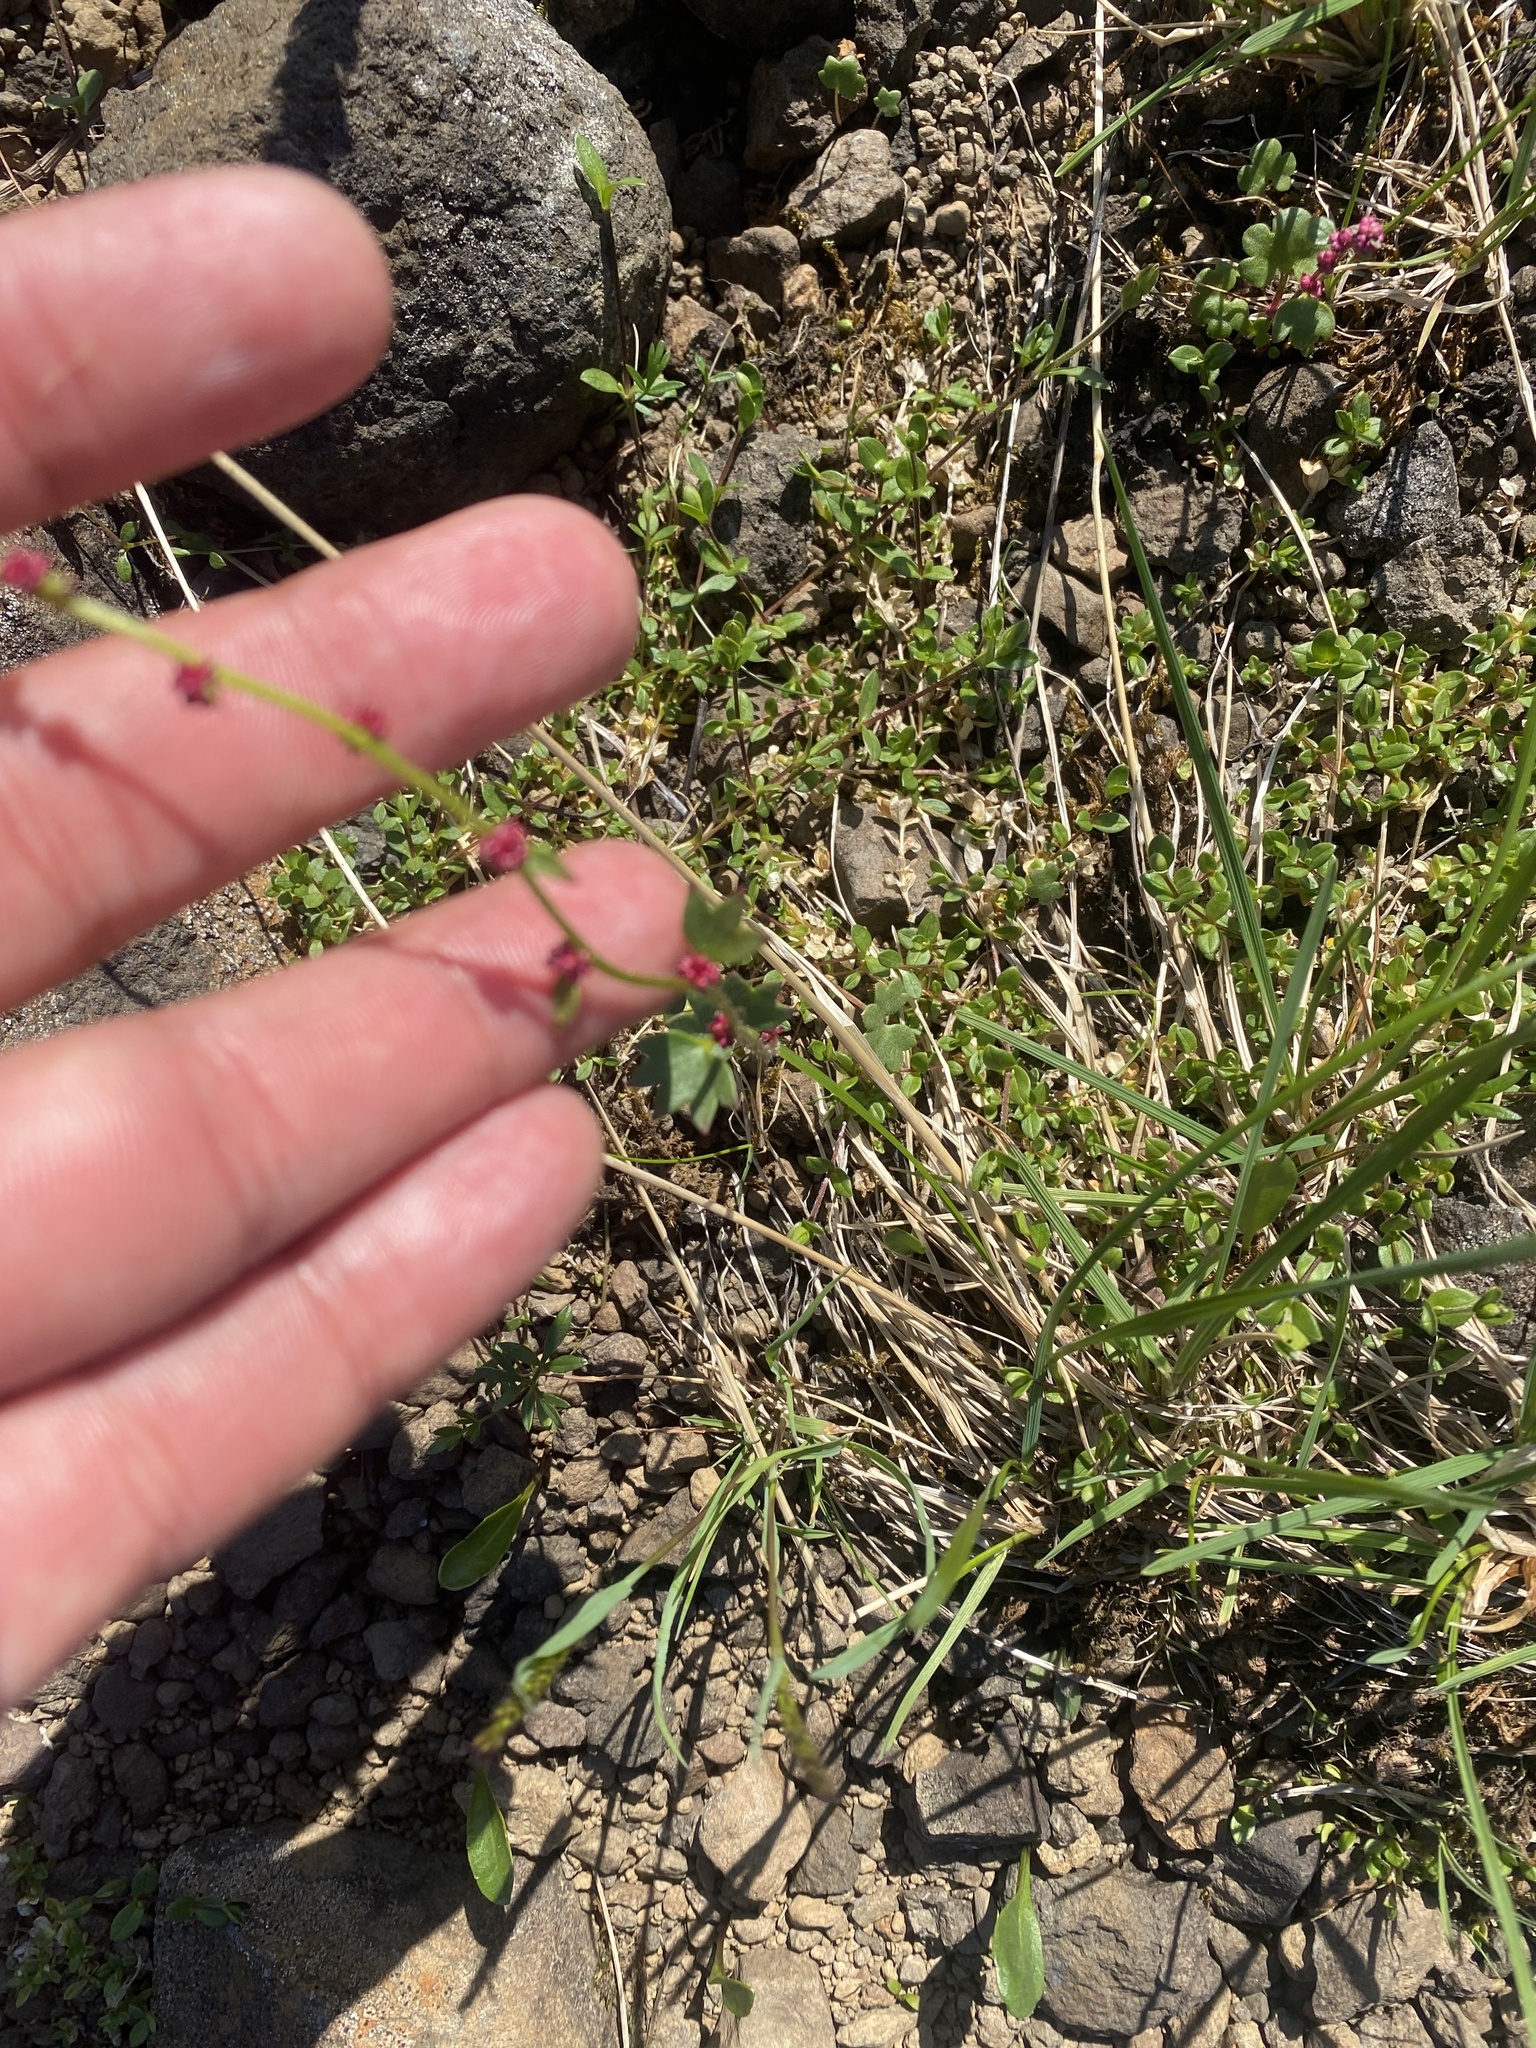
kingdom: Plantae
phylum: Tracheophyta
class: Magnoliopsida
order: Saxifragales
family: Saxifragaceae
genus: Saxifraga
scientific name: Saxifraga cernua
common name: Drooping saxifrage
